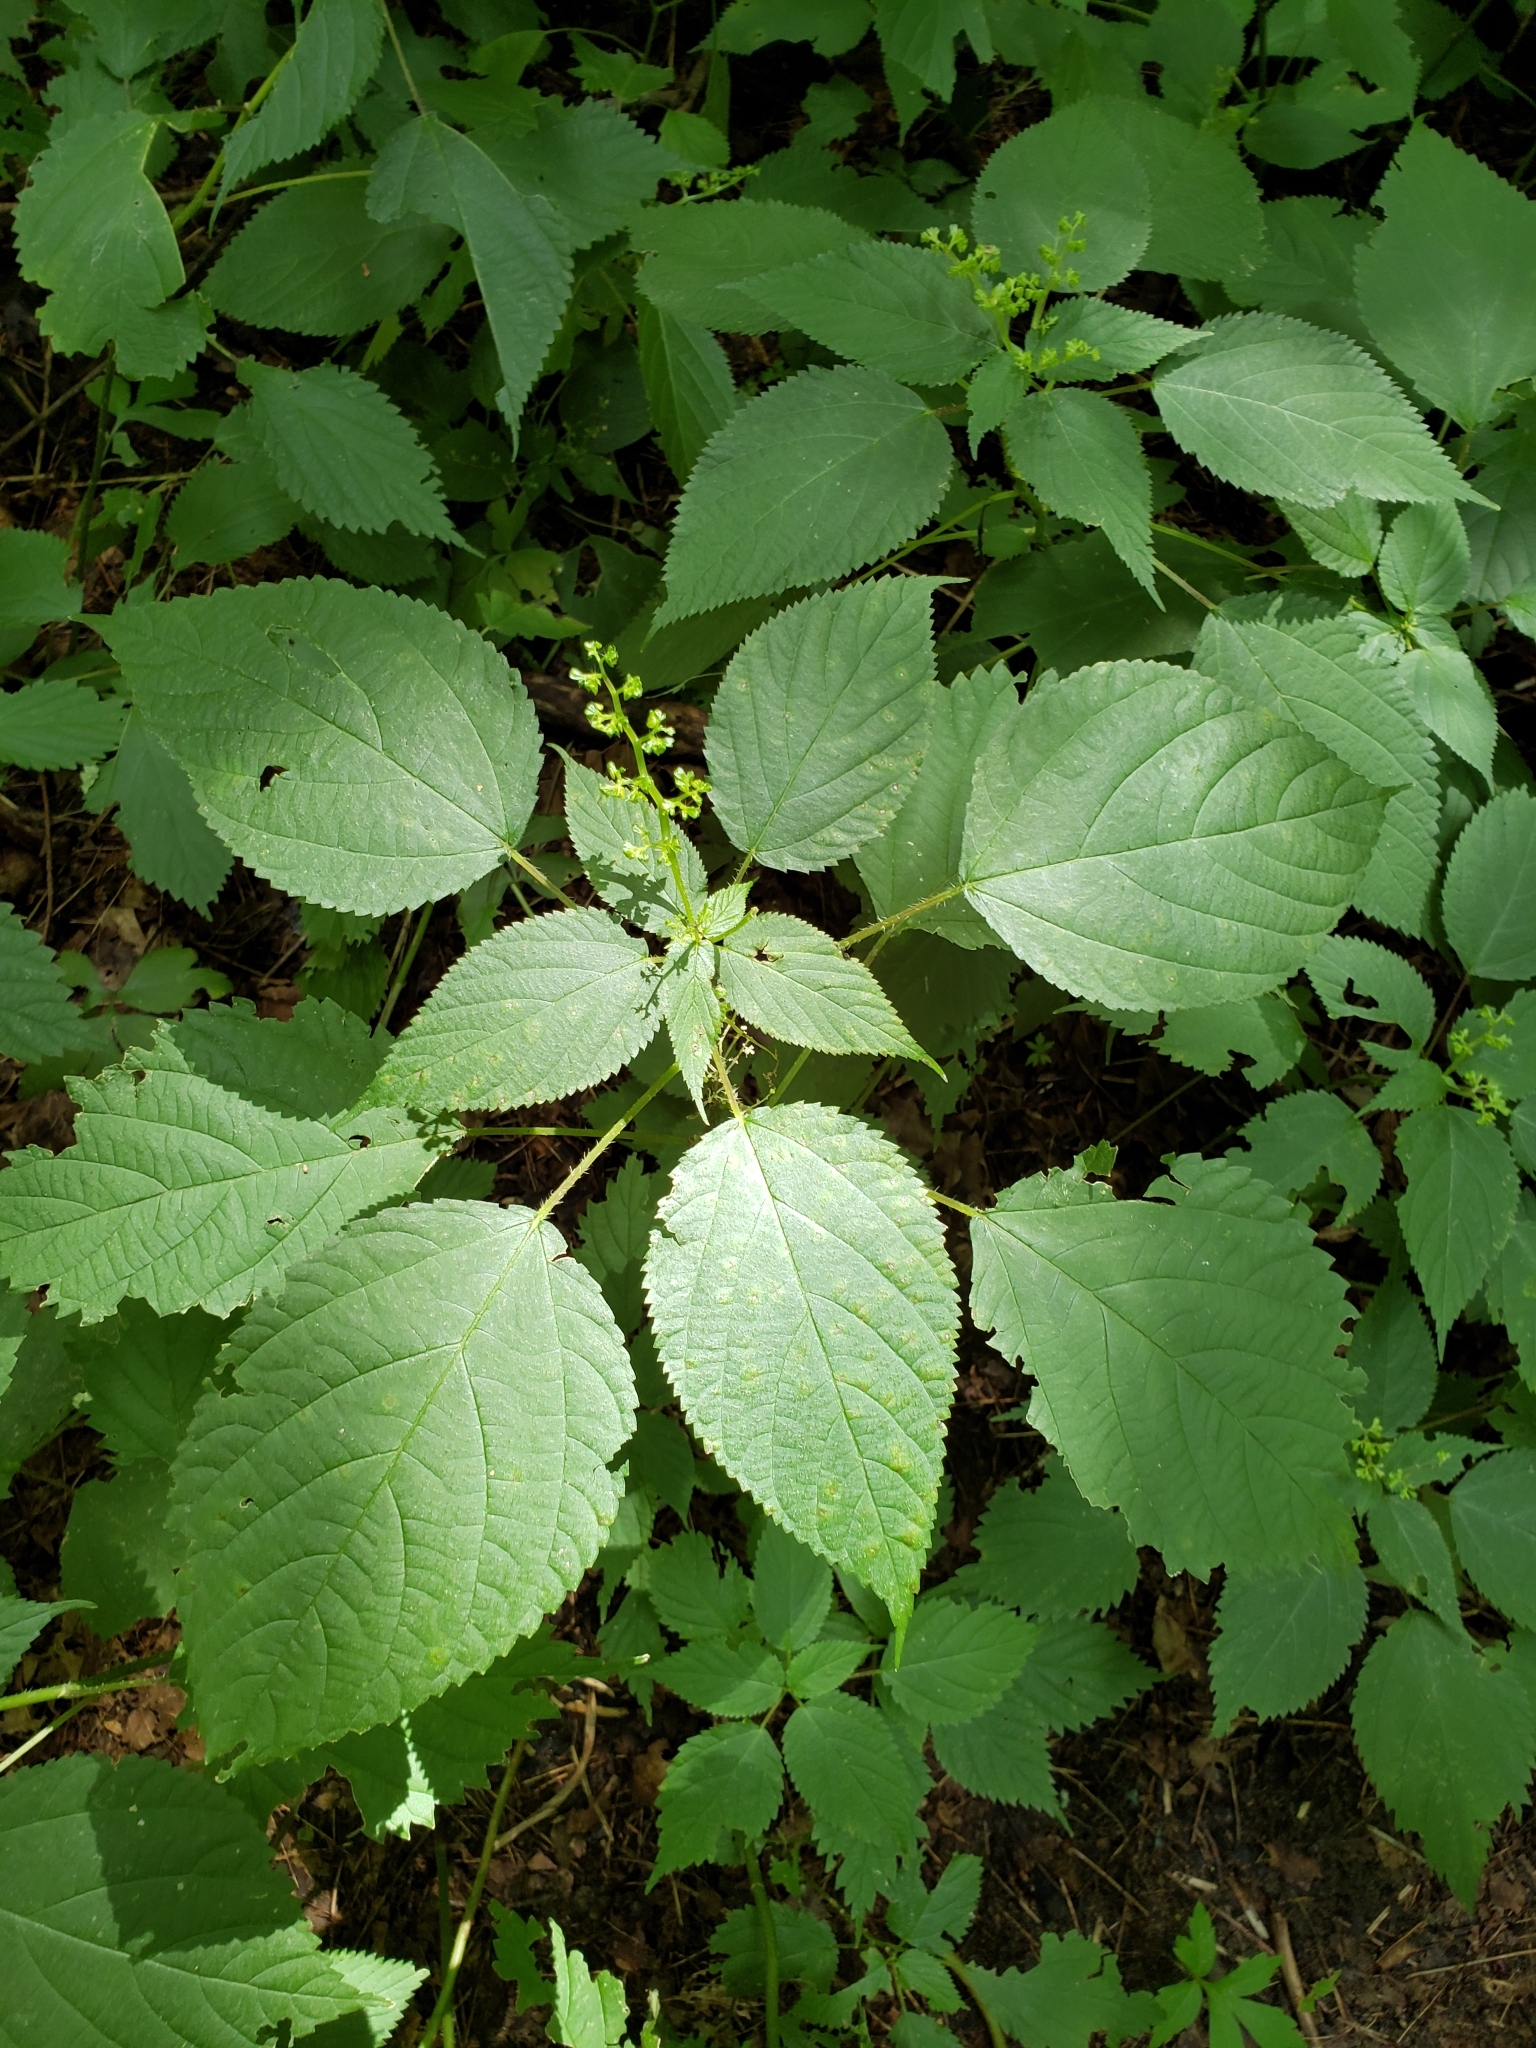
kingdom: Plantae
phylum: Tracheophyta
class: Magnoliopsida
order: Rosales
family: Urticaceae
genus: Laportea
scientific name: Laportea canadensis
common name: Canada nettle
